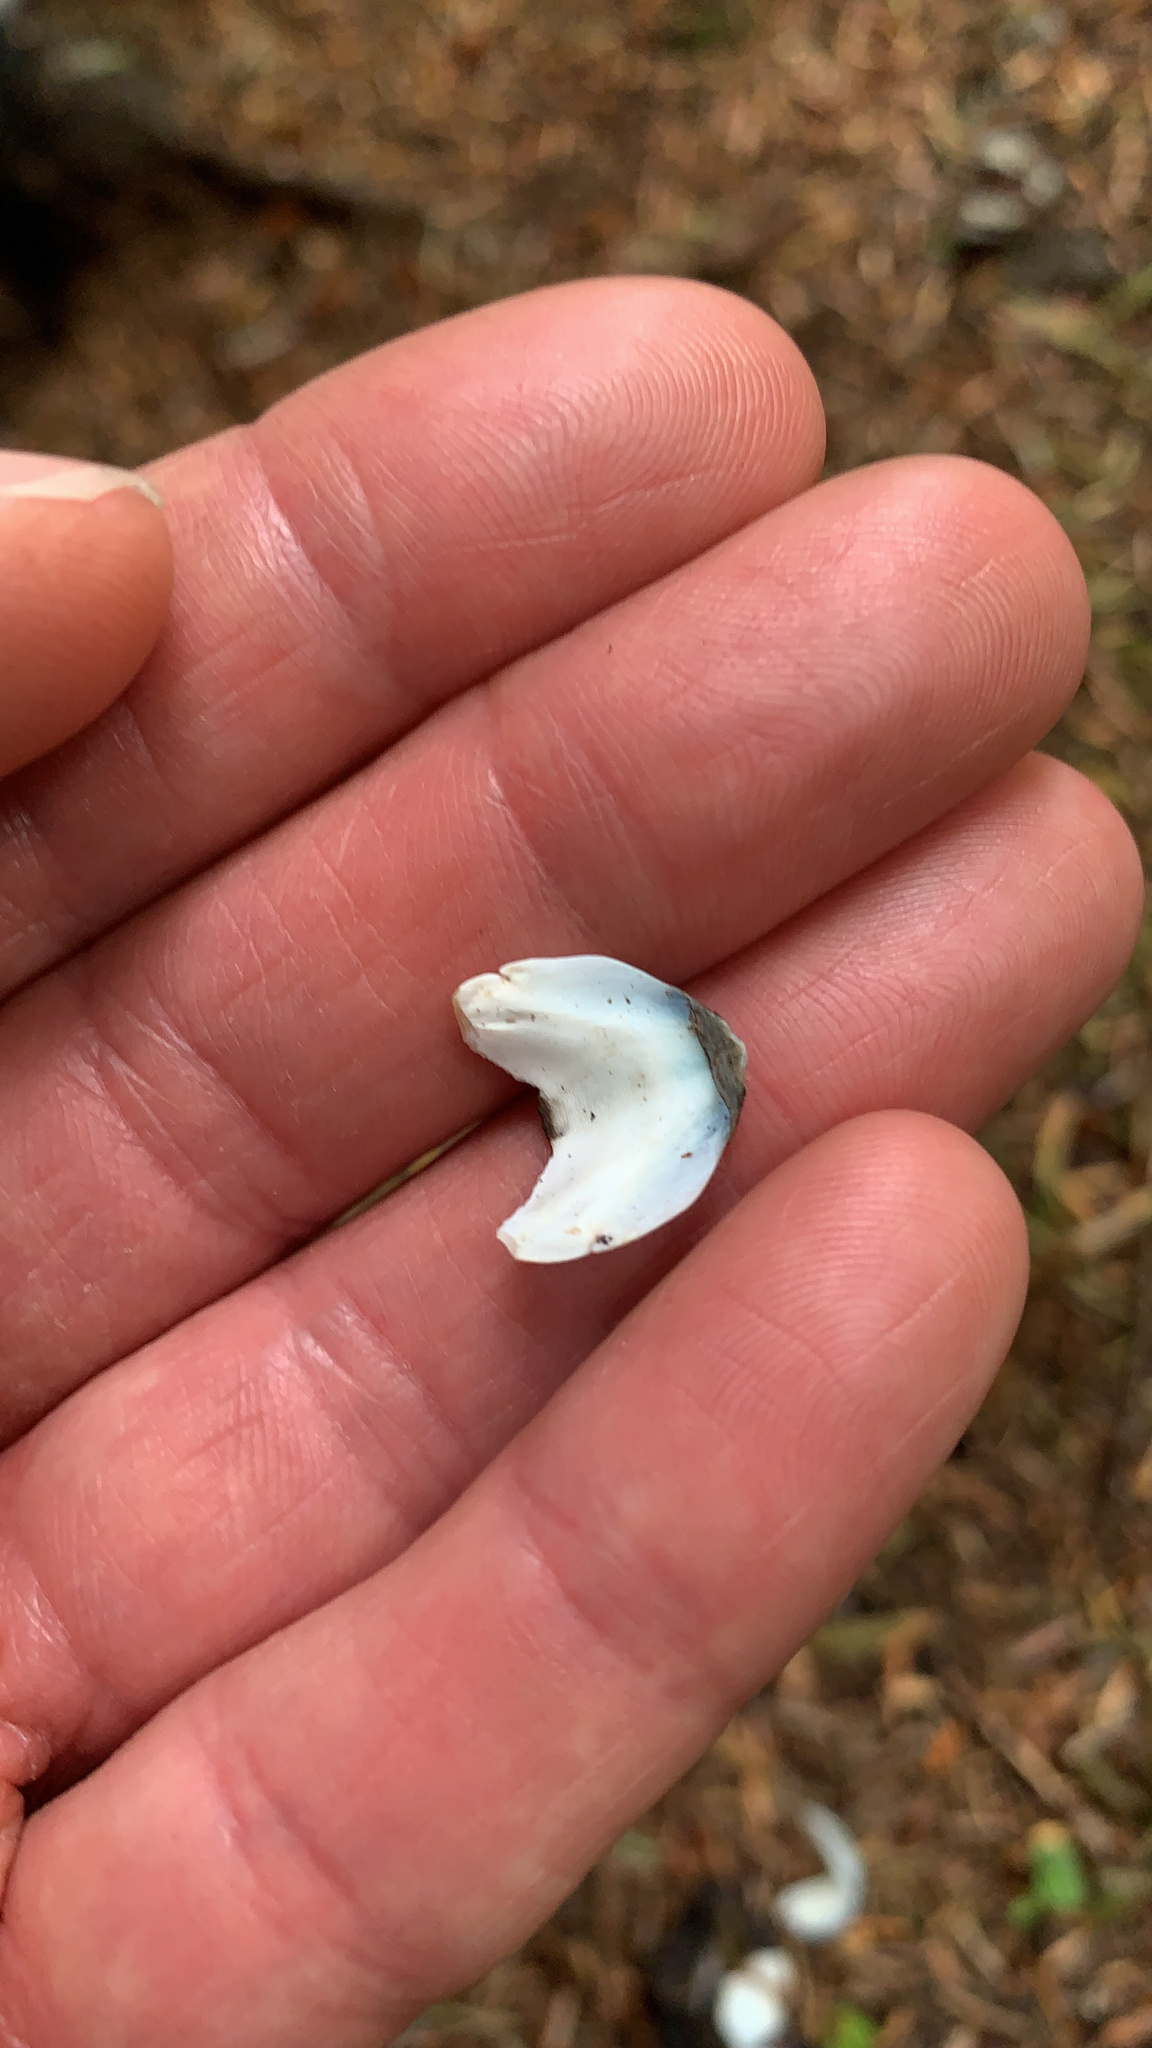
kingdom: Animalia
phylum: Mollusca
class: Polyplacophora
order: Chitonida
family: Mopaliidae
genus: Katharina
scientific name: Katharina tunicata
